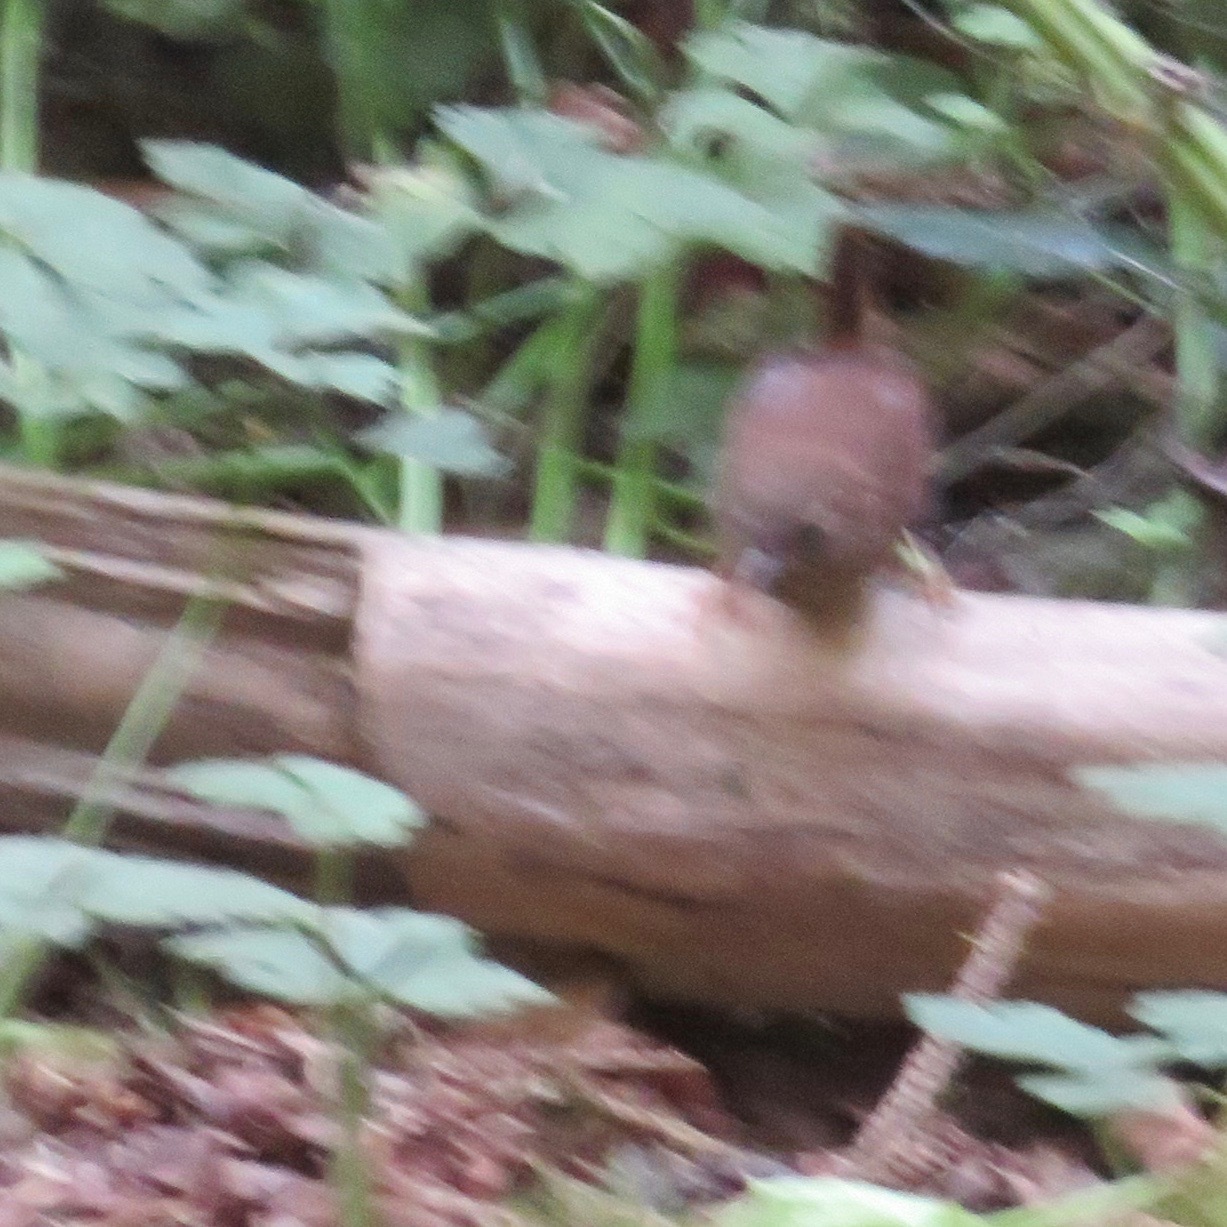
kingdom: Animalia
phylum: Chordata
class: Aves
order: Passeriformes
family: Troglodytidae
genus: Troglodytes
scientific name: Troglodytes pacificus
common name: Pacific wren
